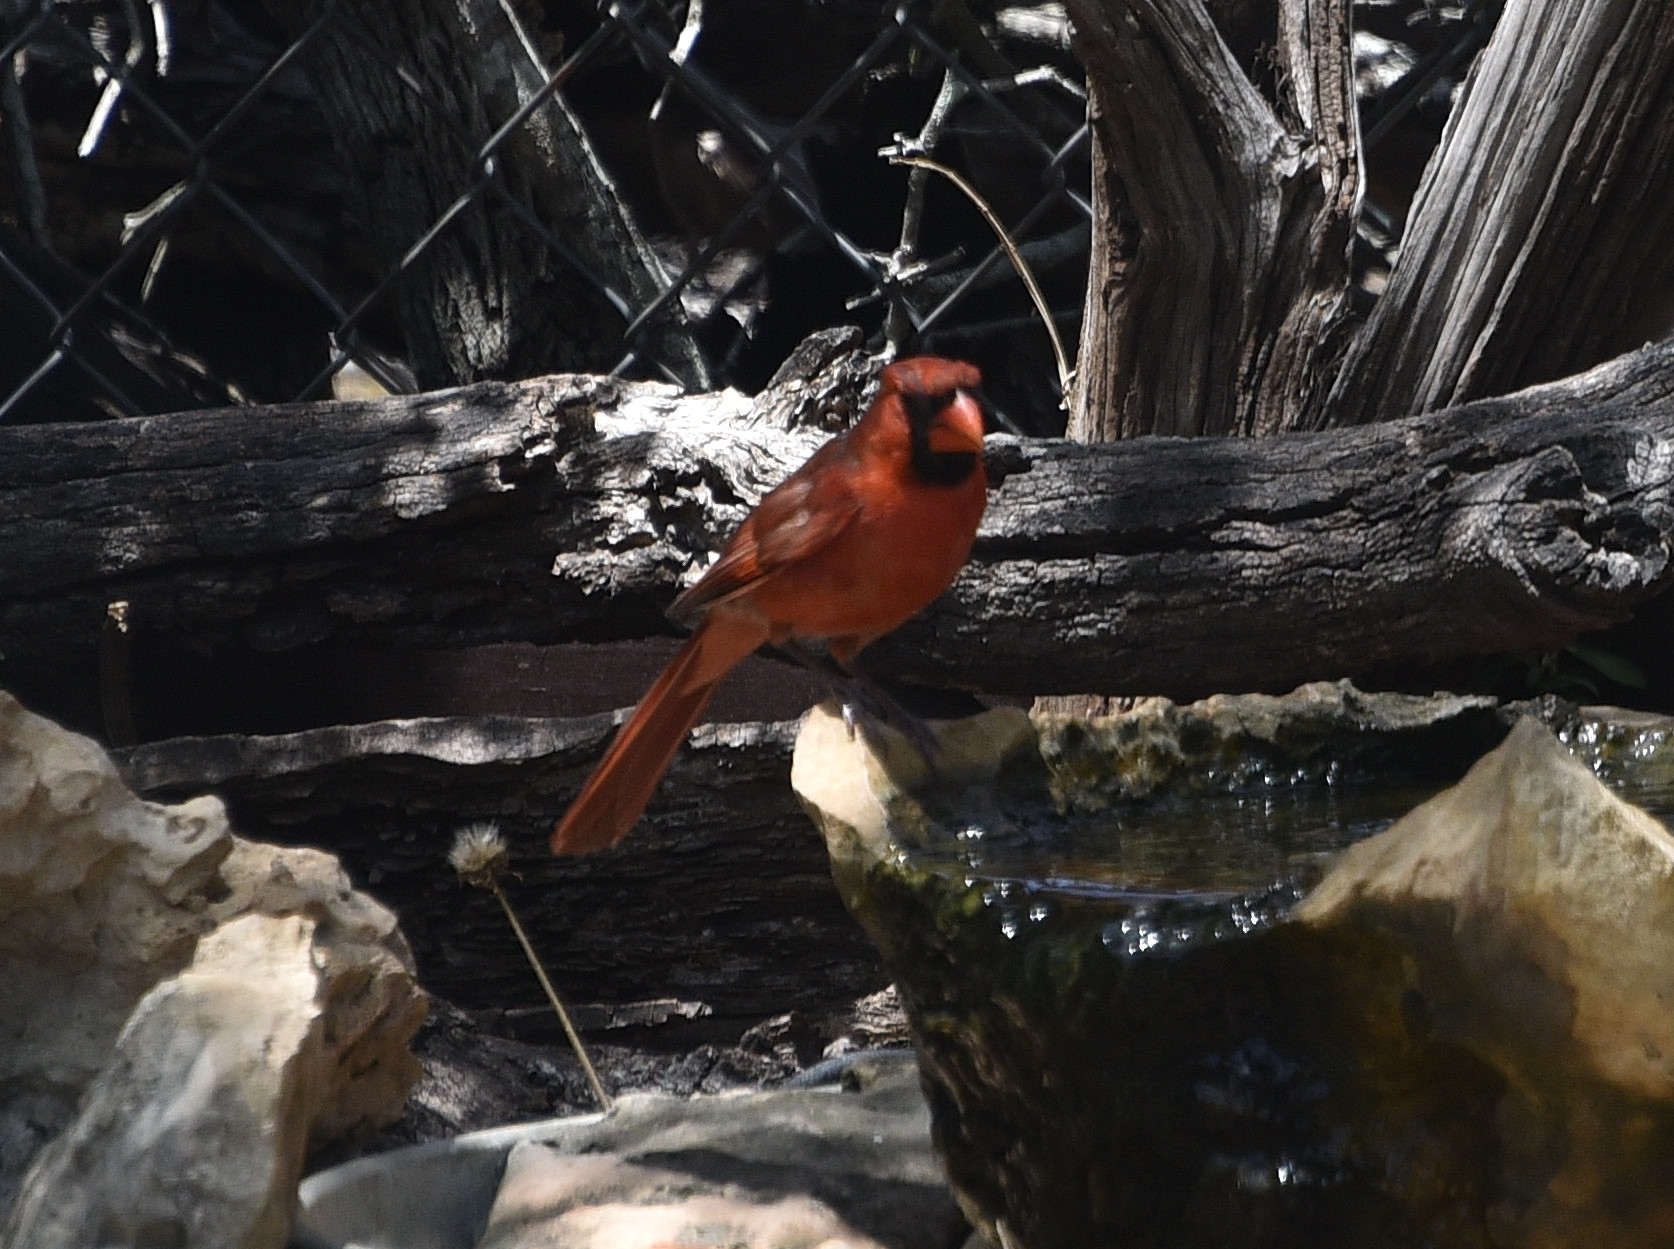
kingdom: Animalia
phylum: Chordata
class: Aves
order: Passeriformes
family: Cardinalidae
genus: Cardinalis
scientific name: Cardinalis cardinalis
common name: Northern cardinal
